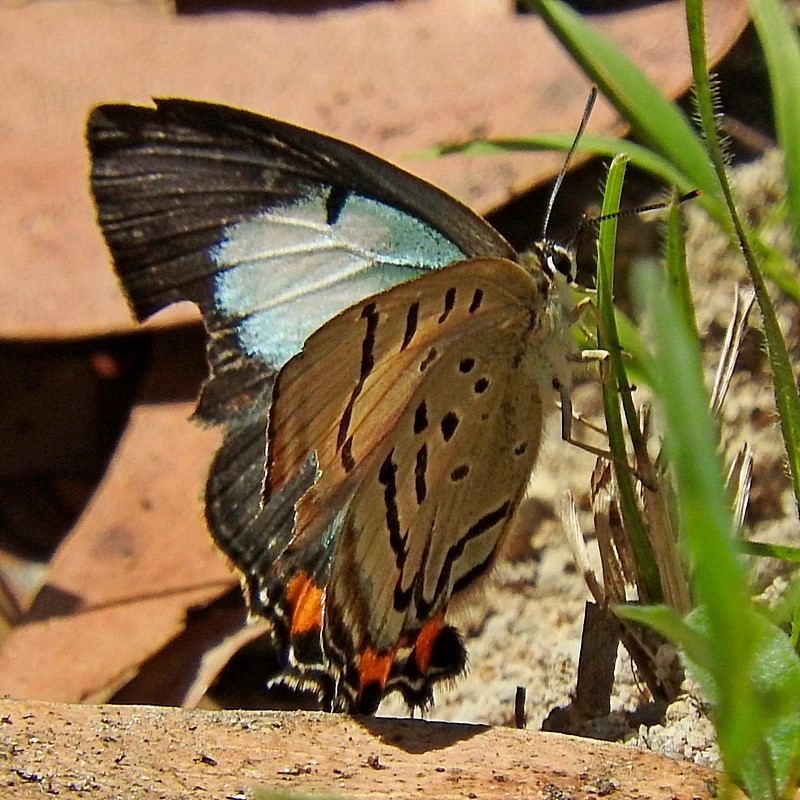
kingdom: Animalia
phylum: Arthropoda
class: Insecta
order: Lepidoptera
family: Lycaenidae
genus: Jalmenus
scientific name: Jalmenus evagoras
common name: Common imperial blue
